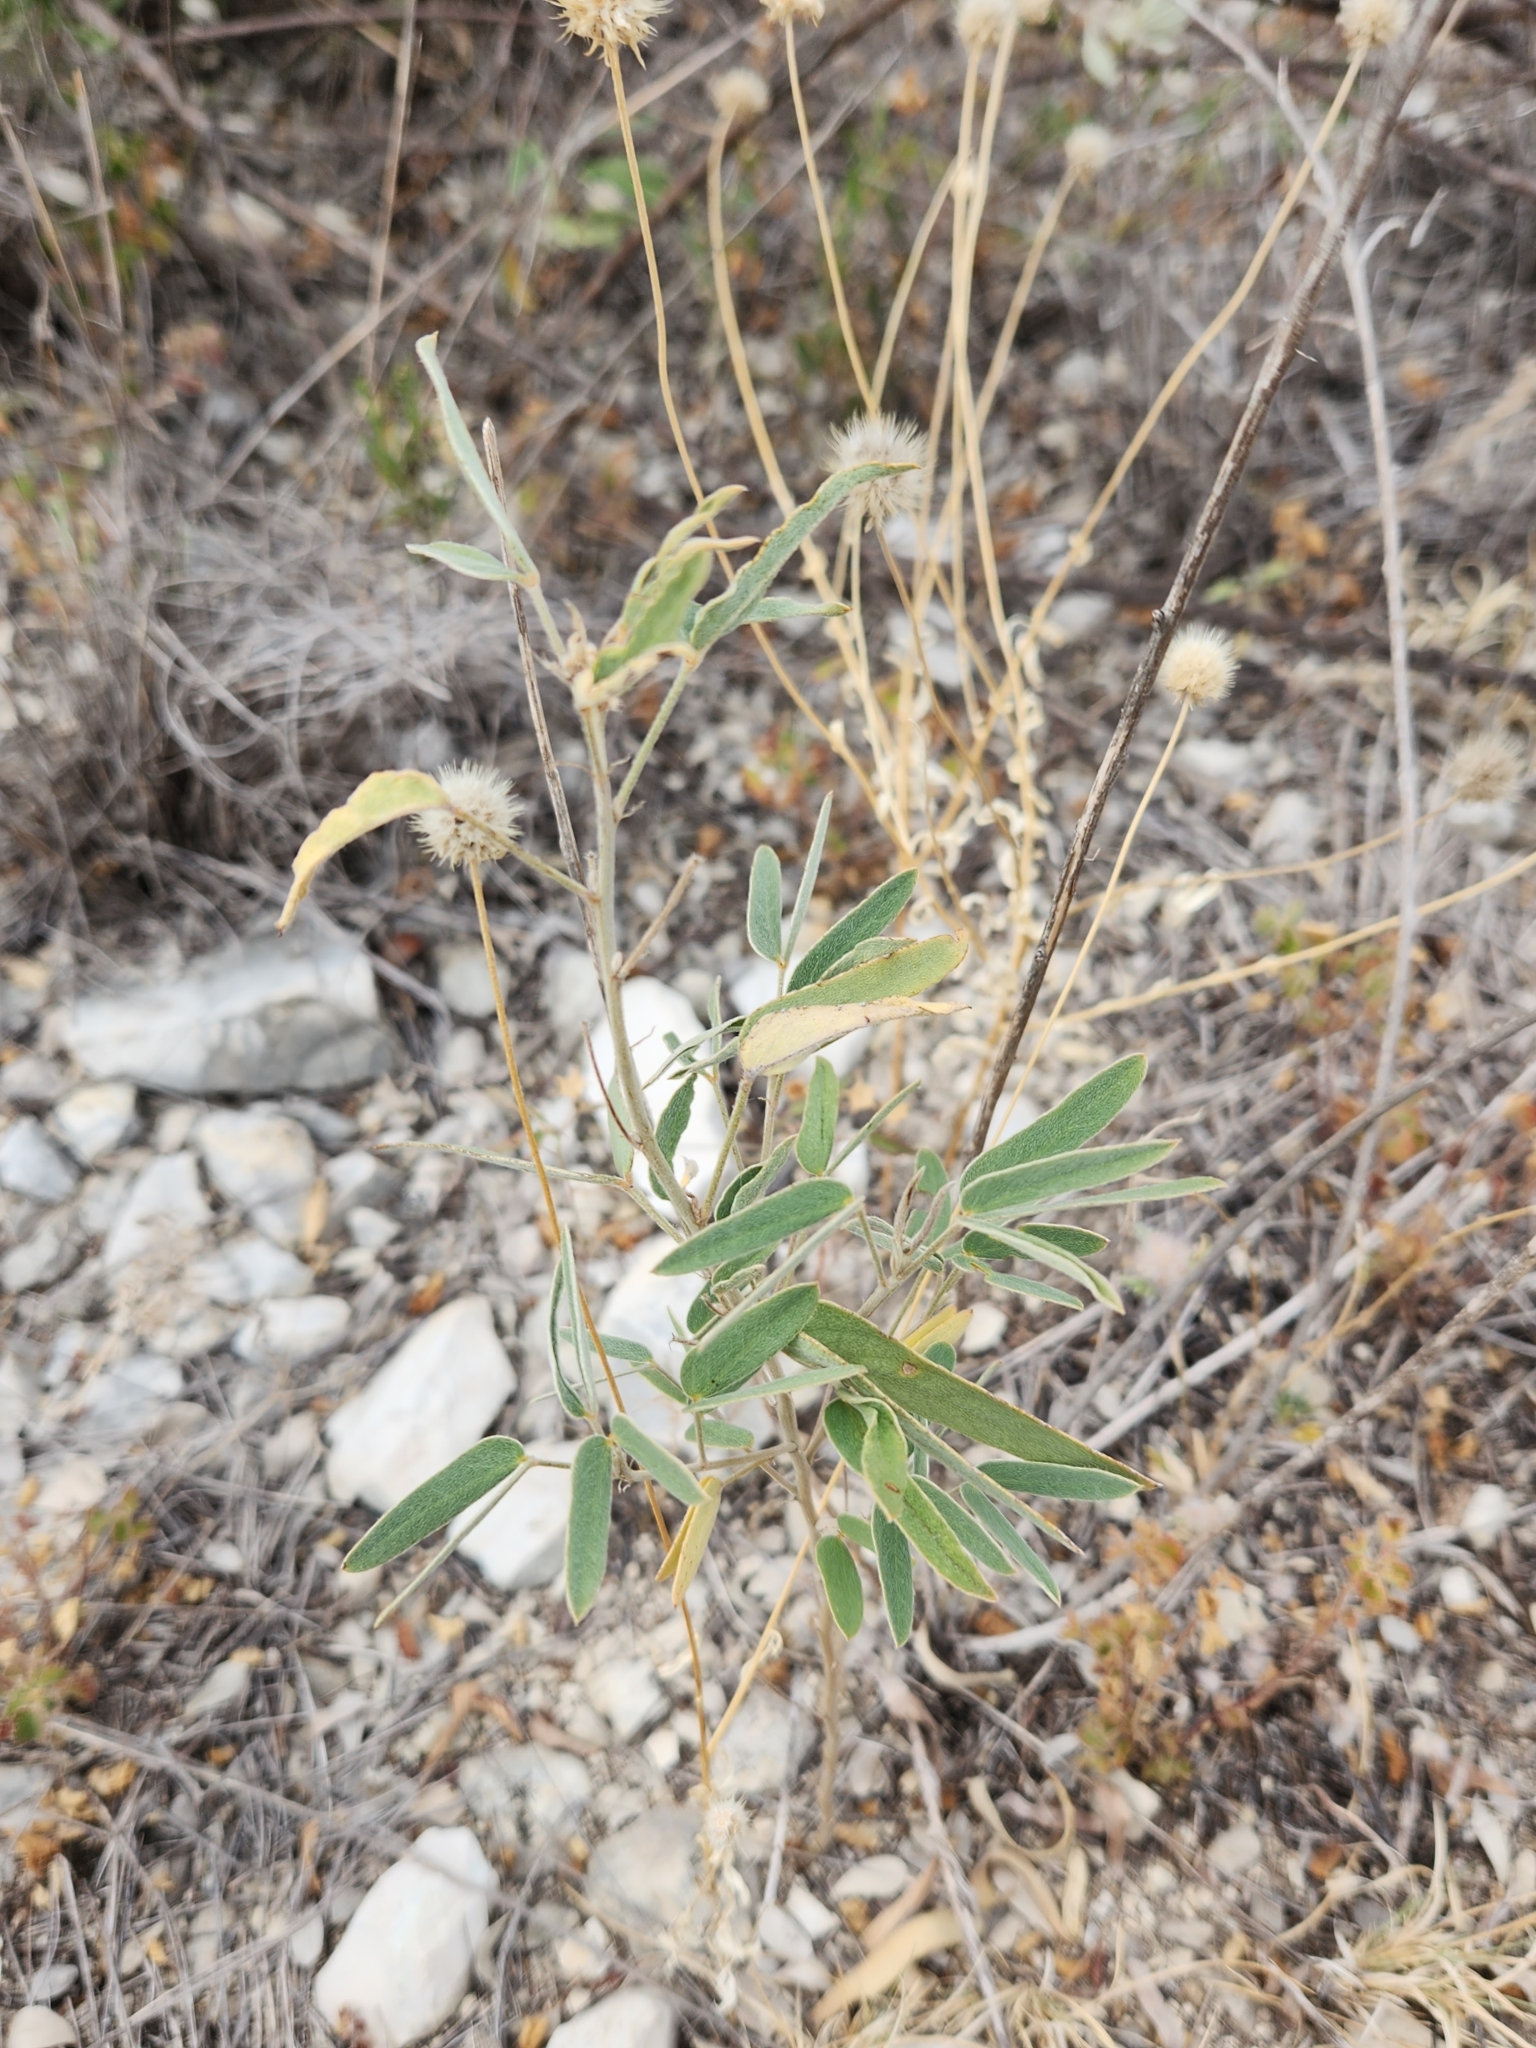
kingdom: Plantae
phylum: Tracheophyta
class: Magnoliopsida
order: Fabales
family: Fabaceae
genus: Senna
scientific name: Senna roemeriana
